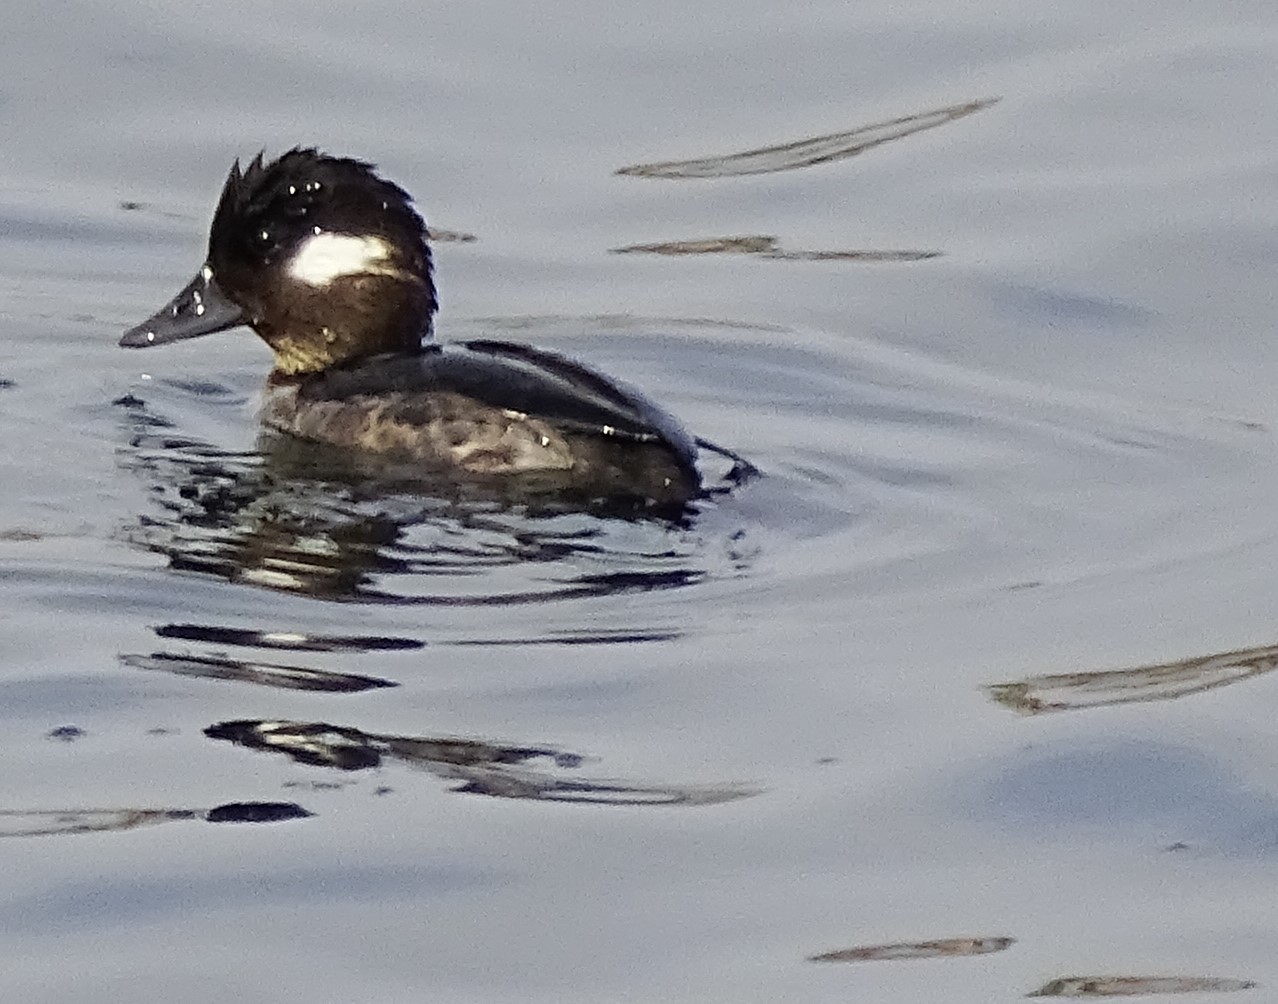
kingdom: Animalia
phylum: Chordata
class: Aves
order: Anseriformes
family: Anatidae
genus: Bucephala
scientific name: Bucephala albeola
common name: Bufflehead
